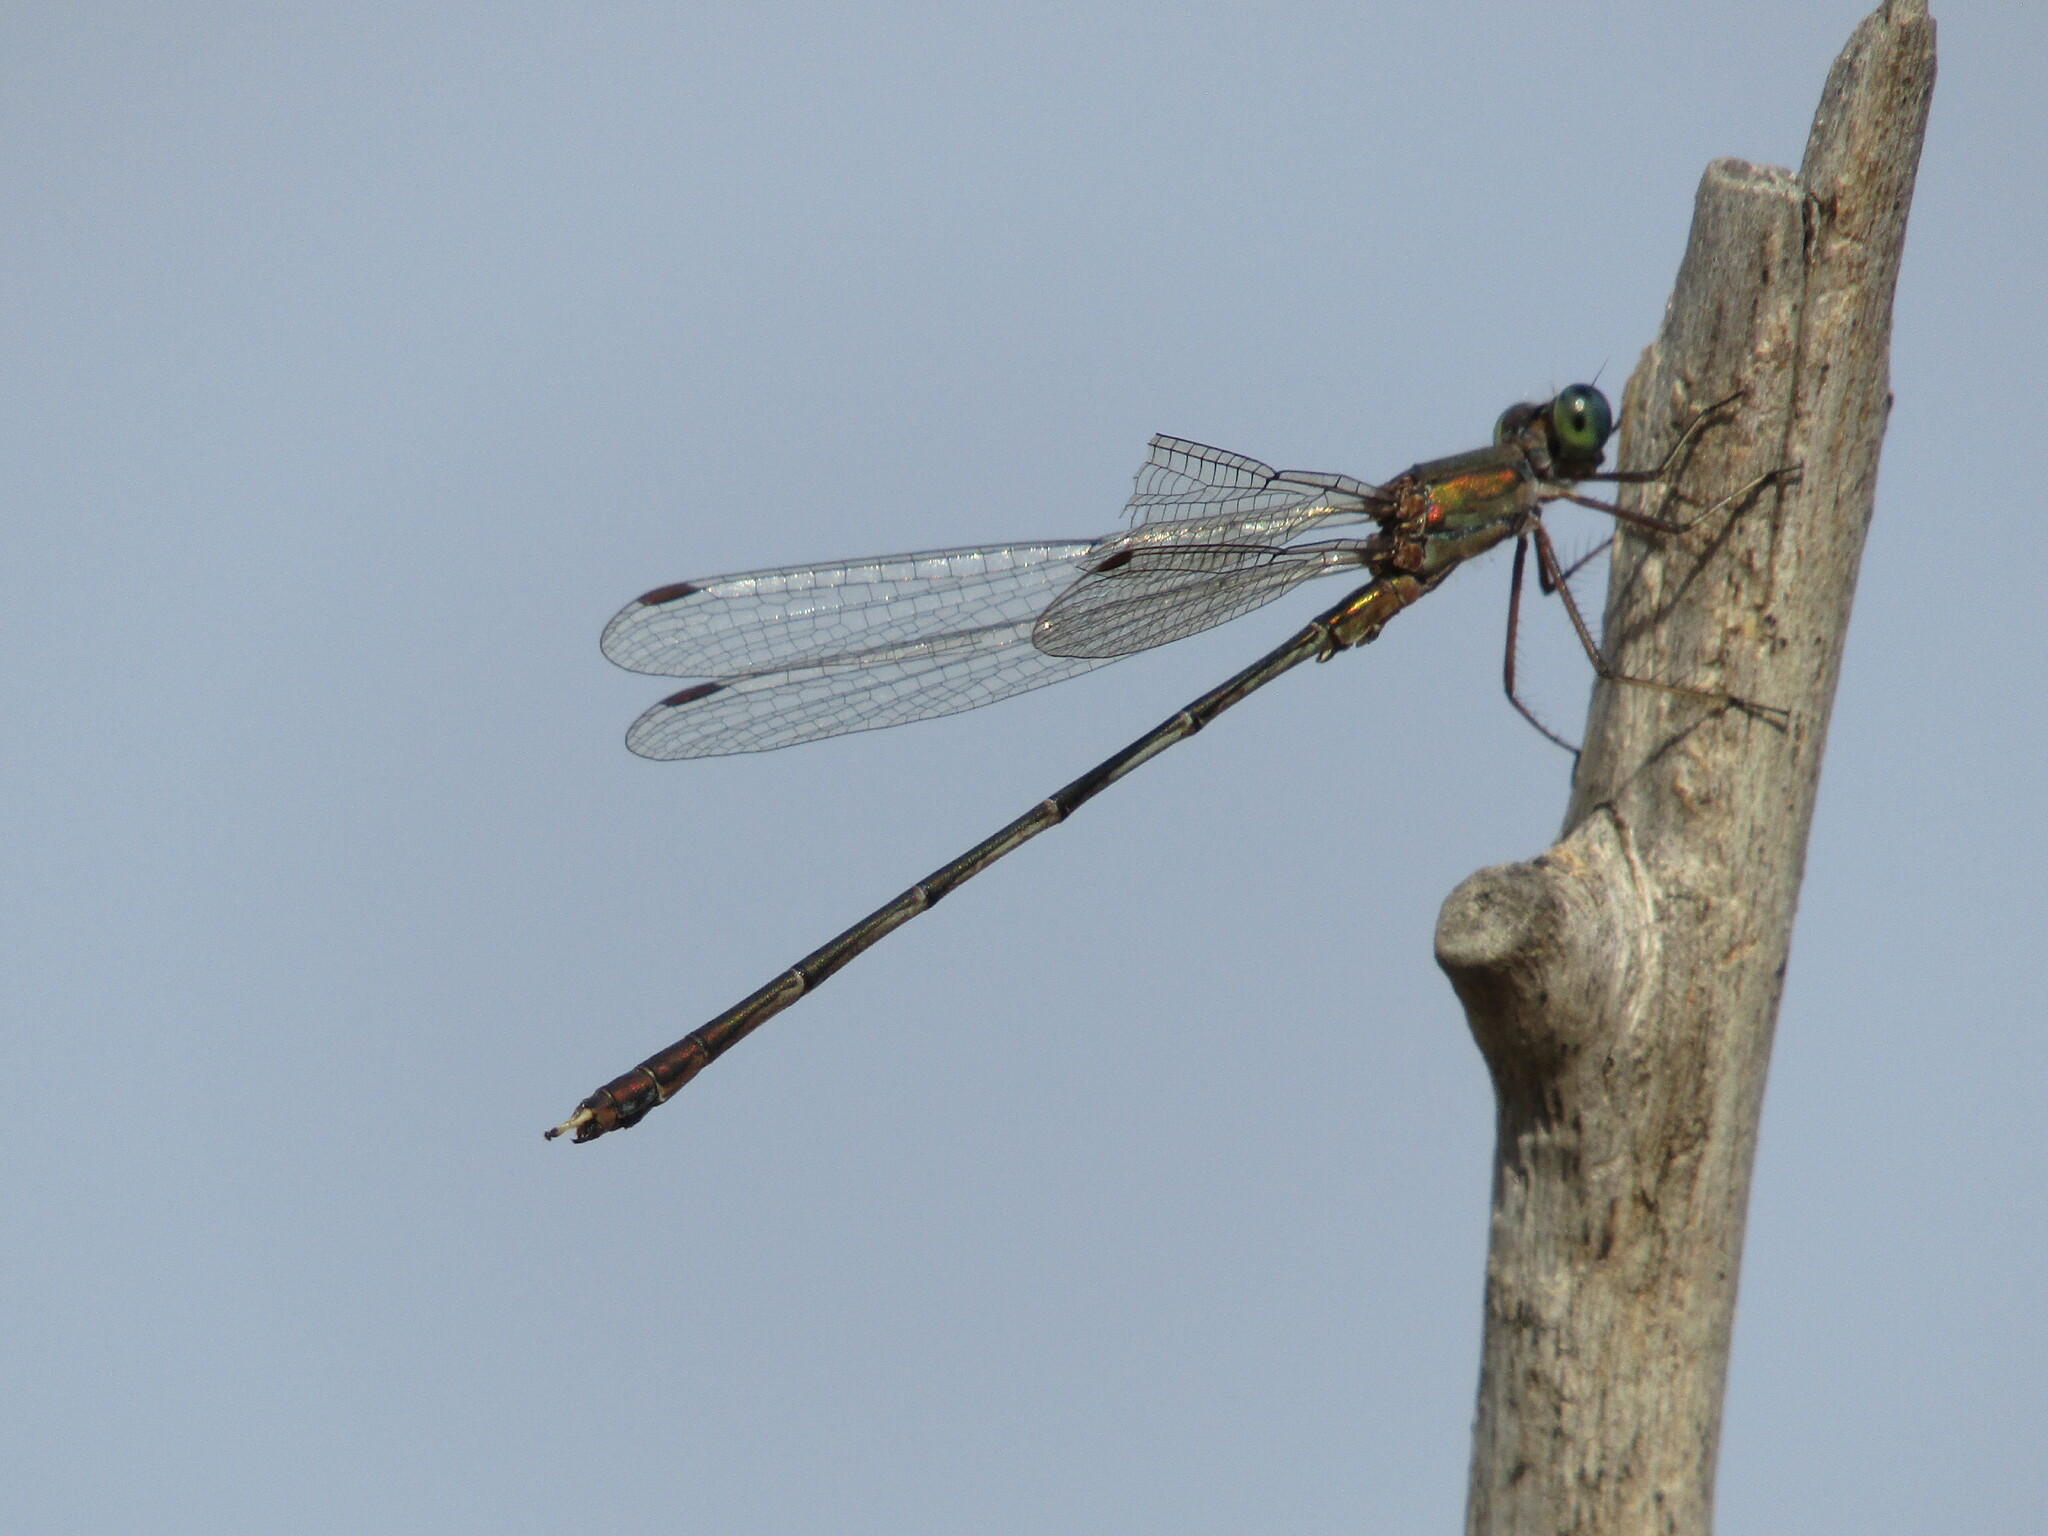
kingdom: Animalia
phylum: Arthropoda
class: Insecta
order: Odonata
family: Lestidae
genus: Chalcolestes
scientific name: Chalcolestes parvidens
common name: Eastern willow spreadwing
